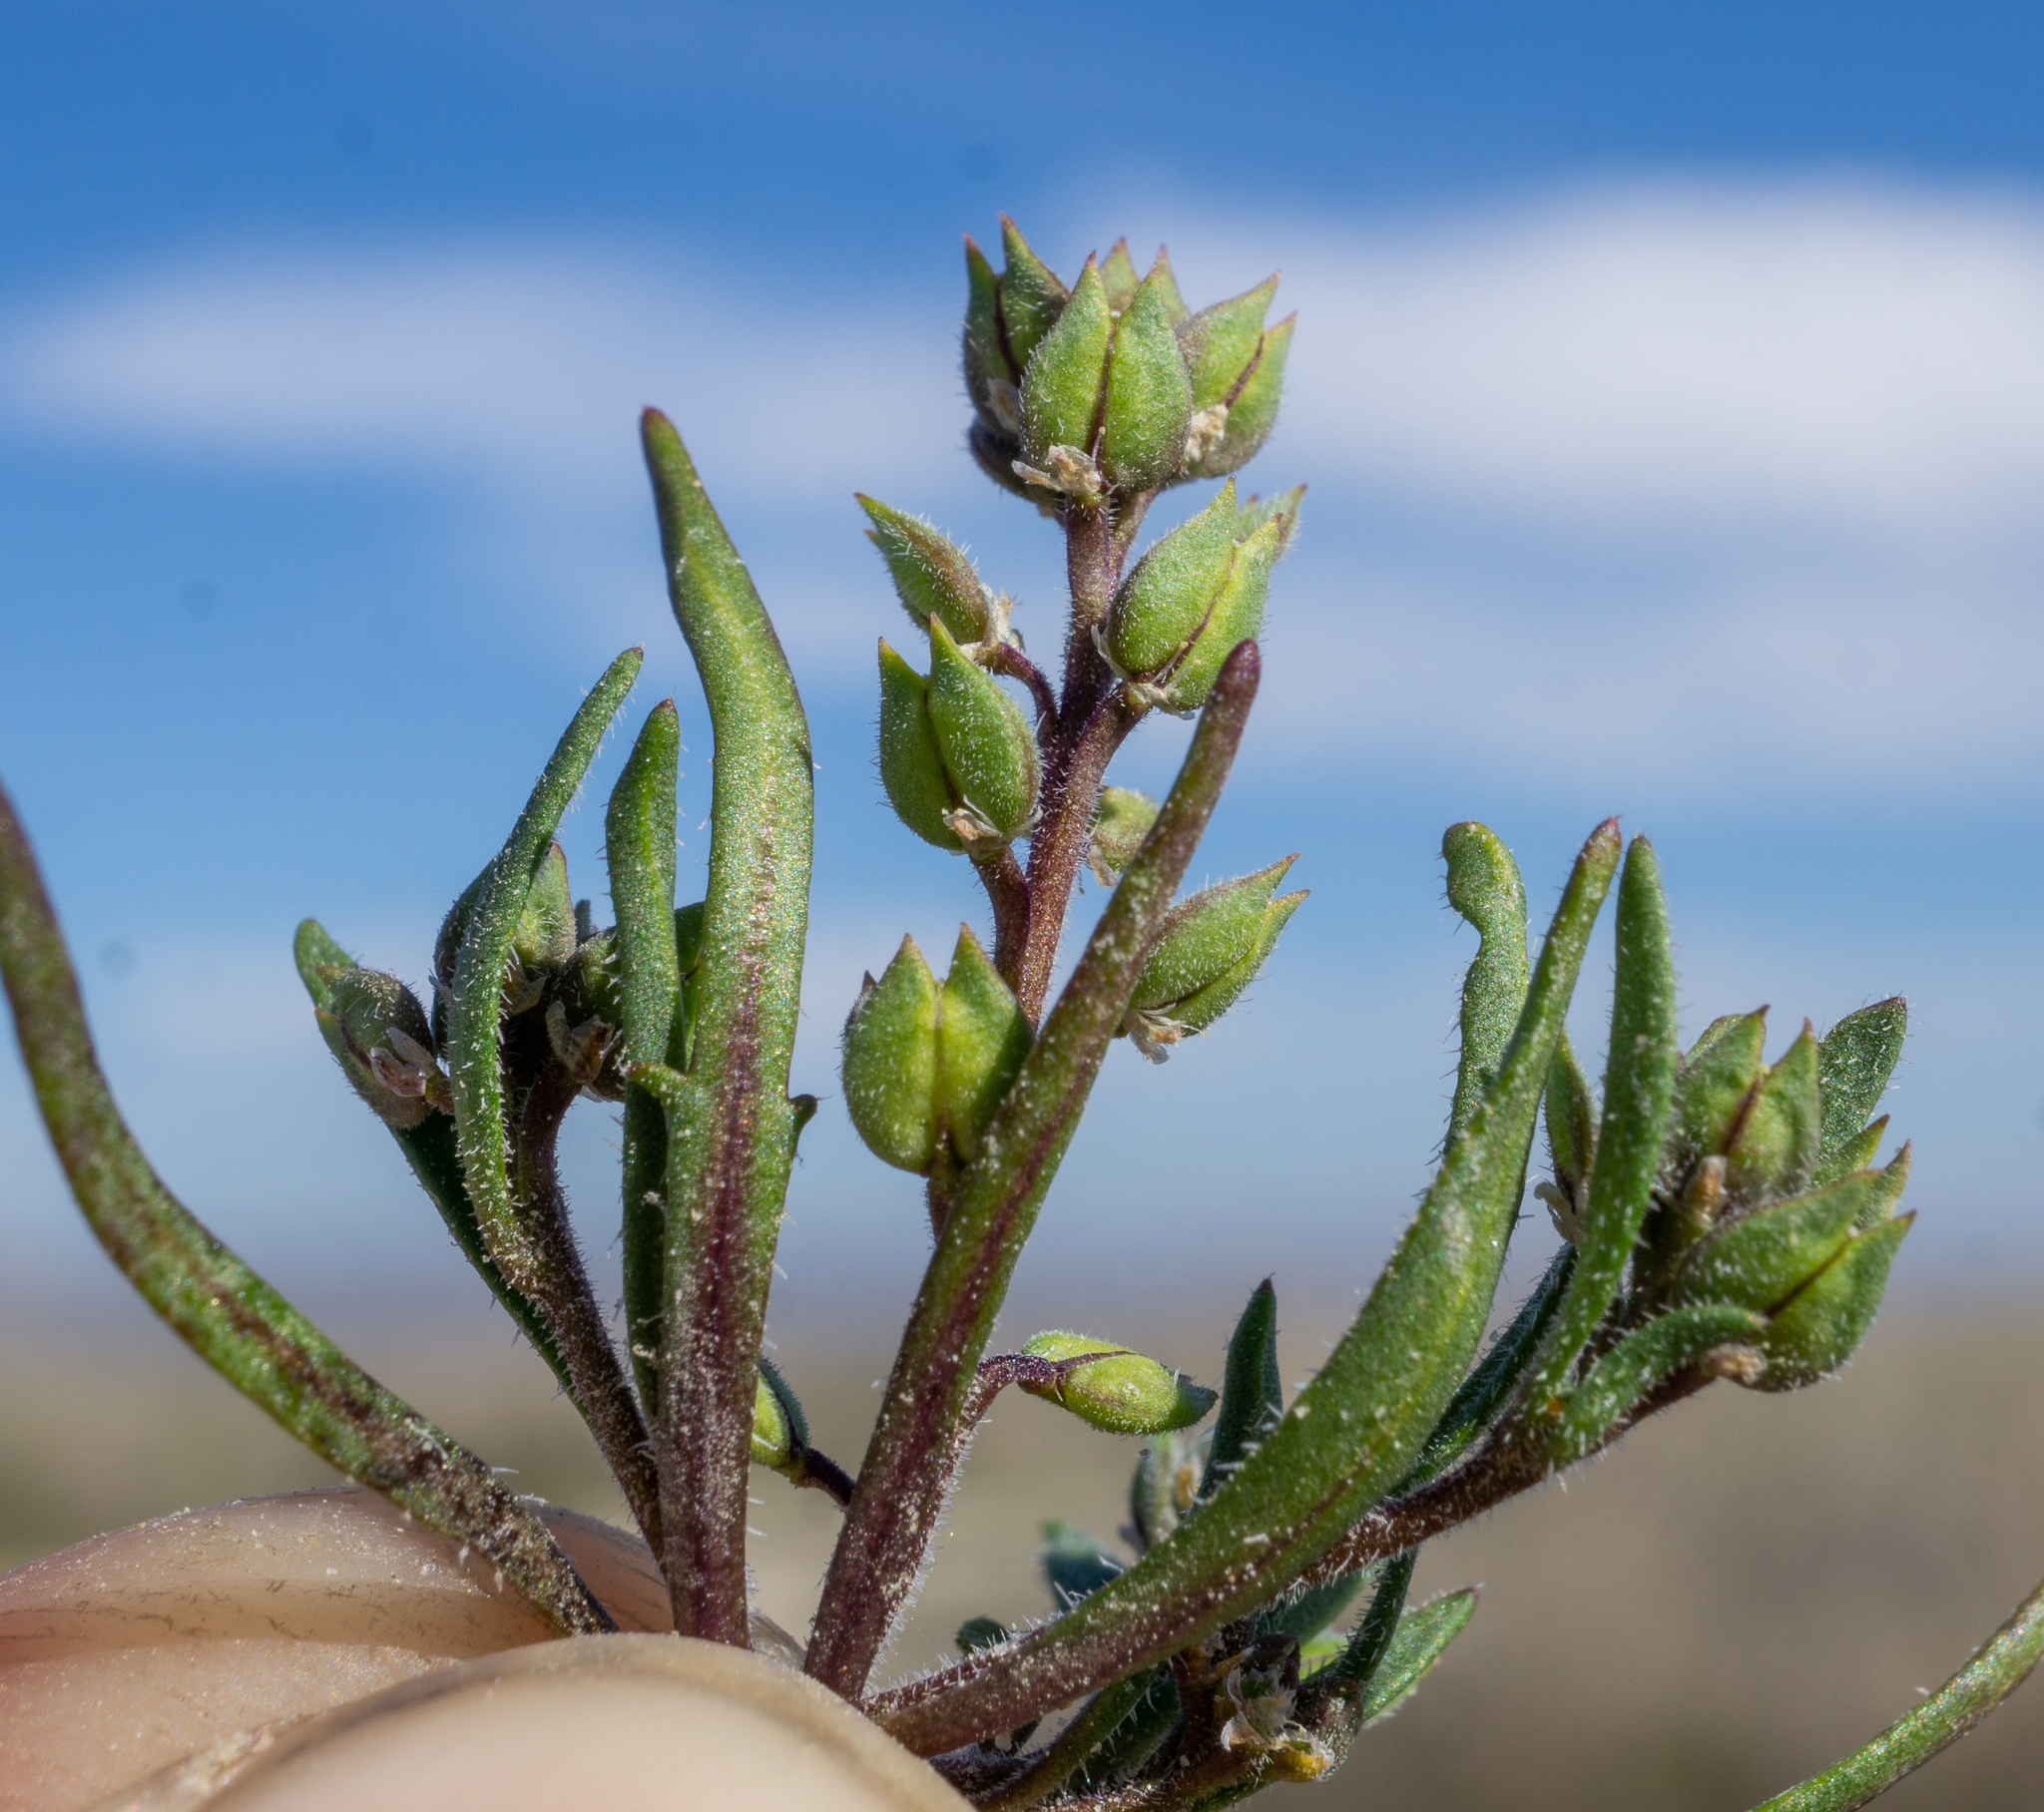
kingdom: Plantae
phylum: Tracheophyta
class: Magnoliopsida
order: Brassicales
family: Brassicaceae
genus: Lepidium
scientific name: Lepidium acutidens
